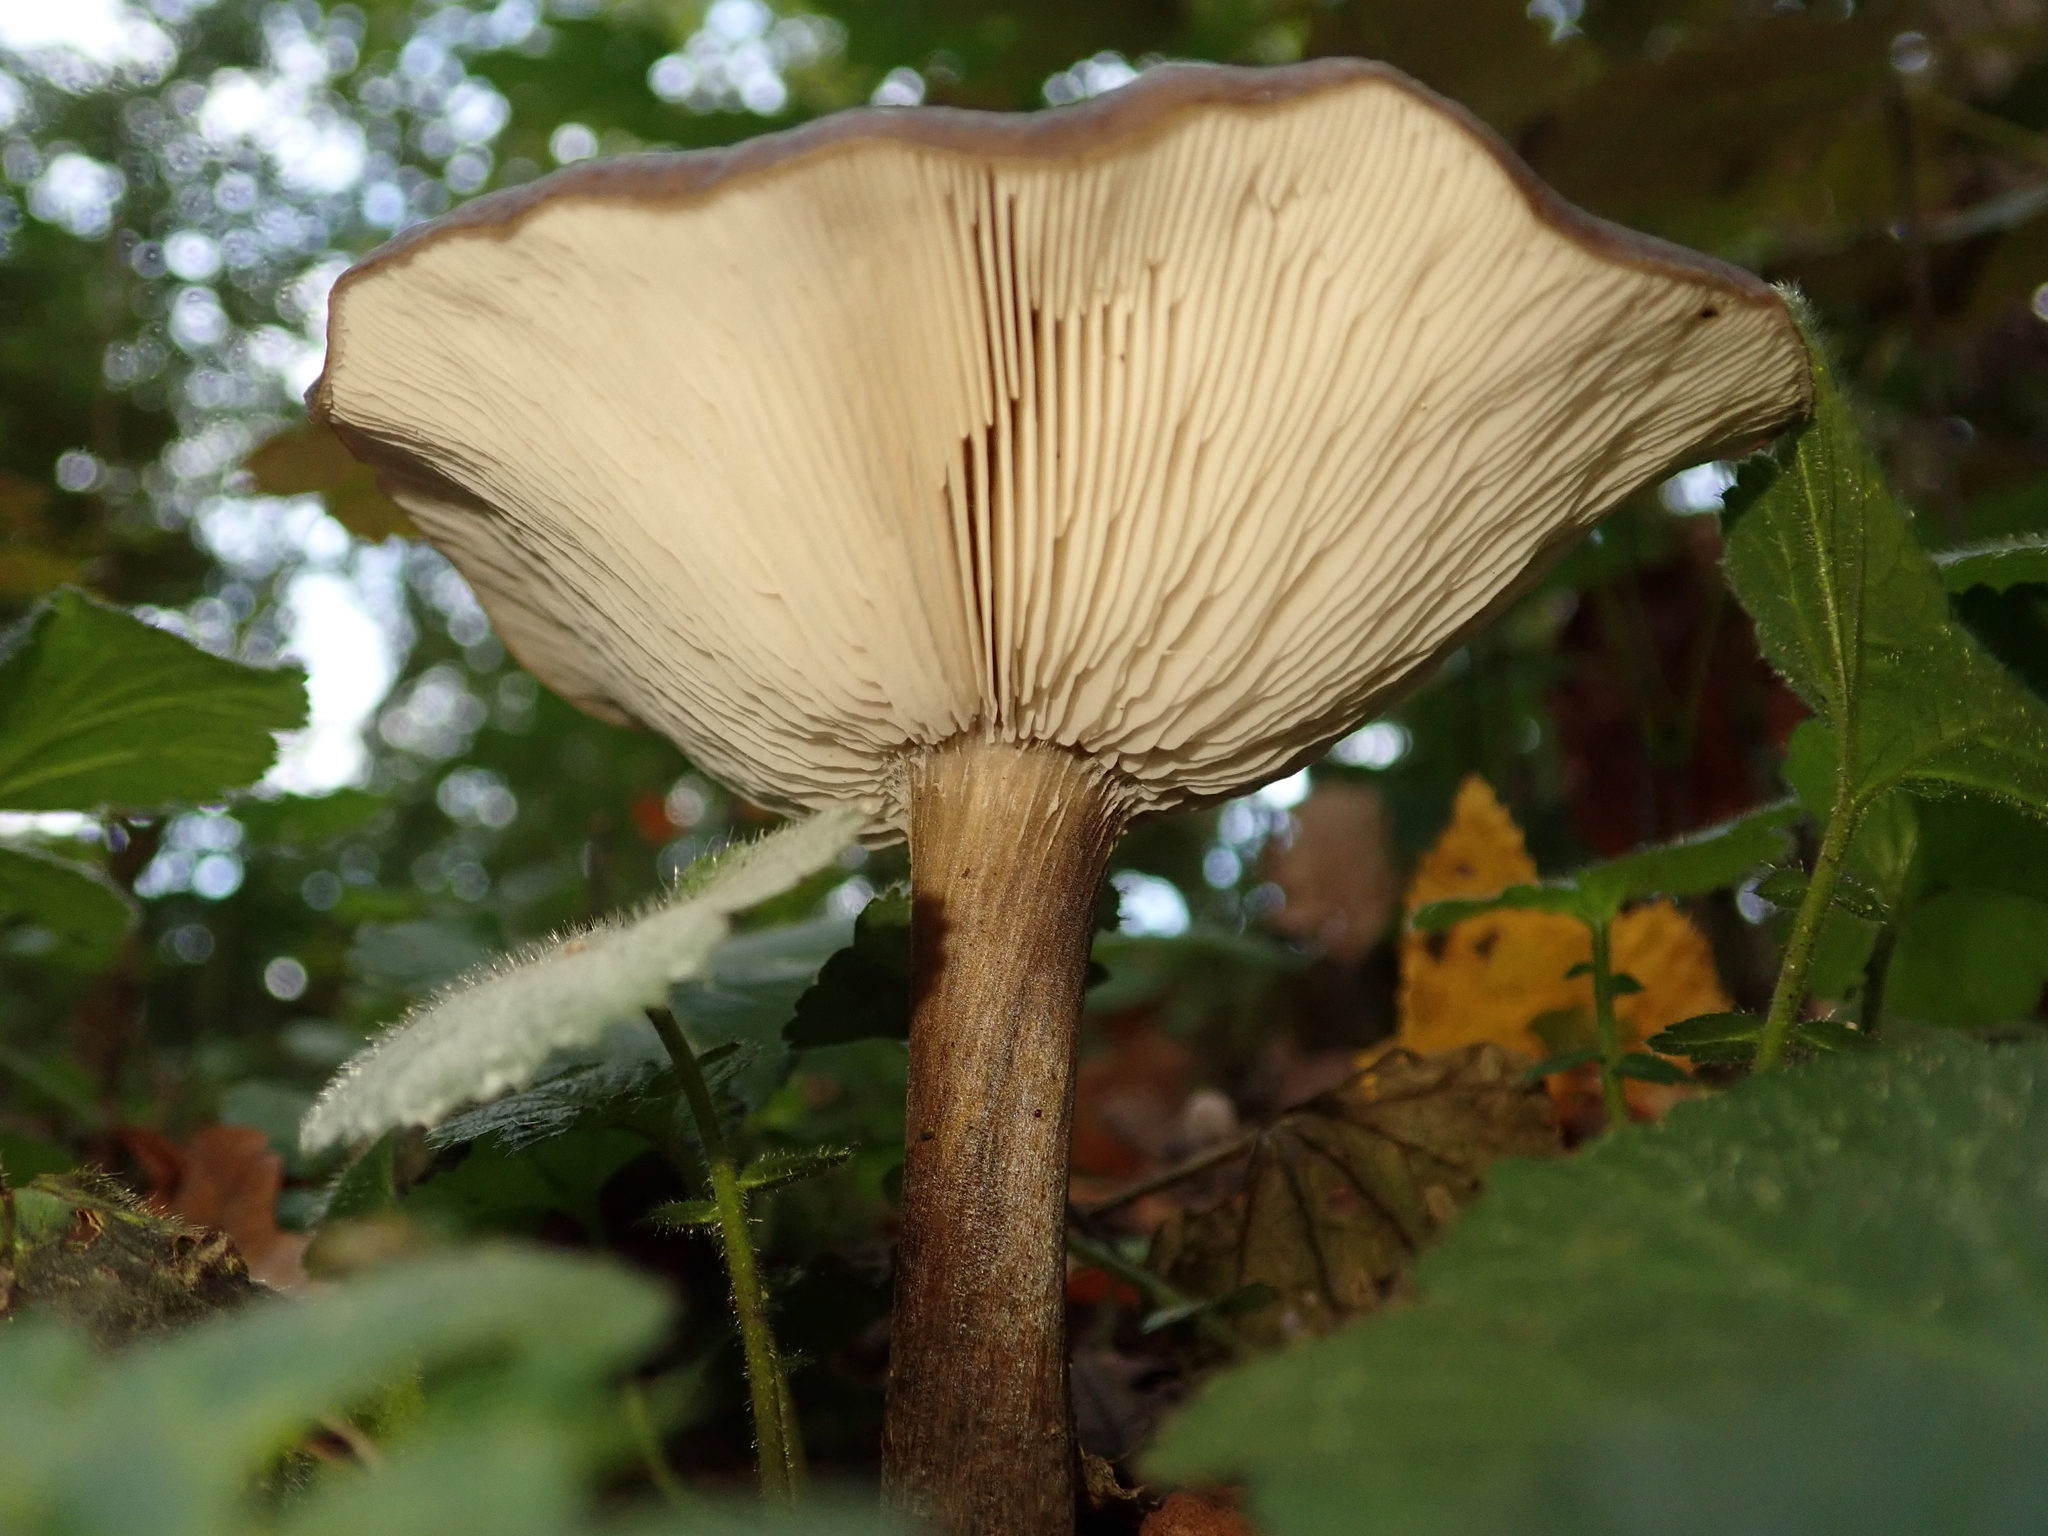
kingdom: Fungi
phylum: Basidiomycota
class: Agaricomycetes
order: Agaricales
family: Pseudoclitocybaceae
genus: Pseudoclitocybe
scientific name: Pseudoclitocybe cyathiformis
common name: Goblet
